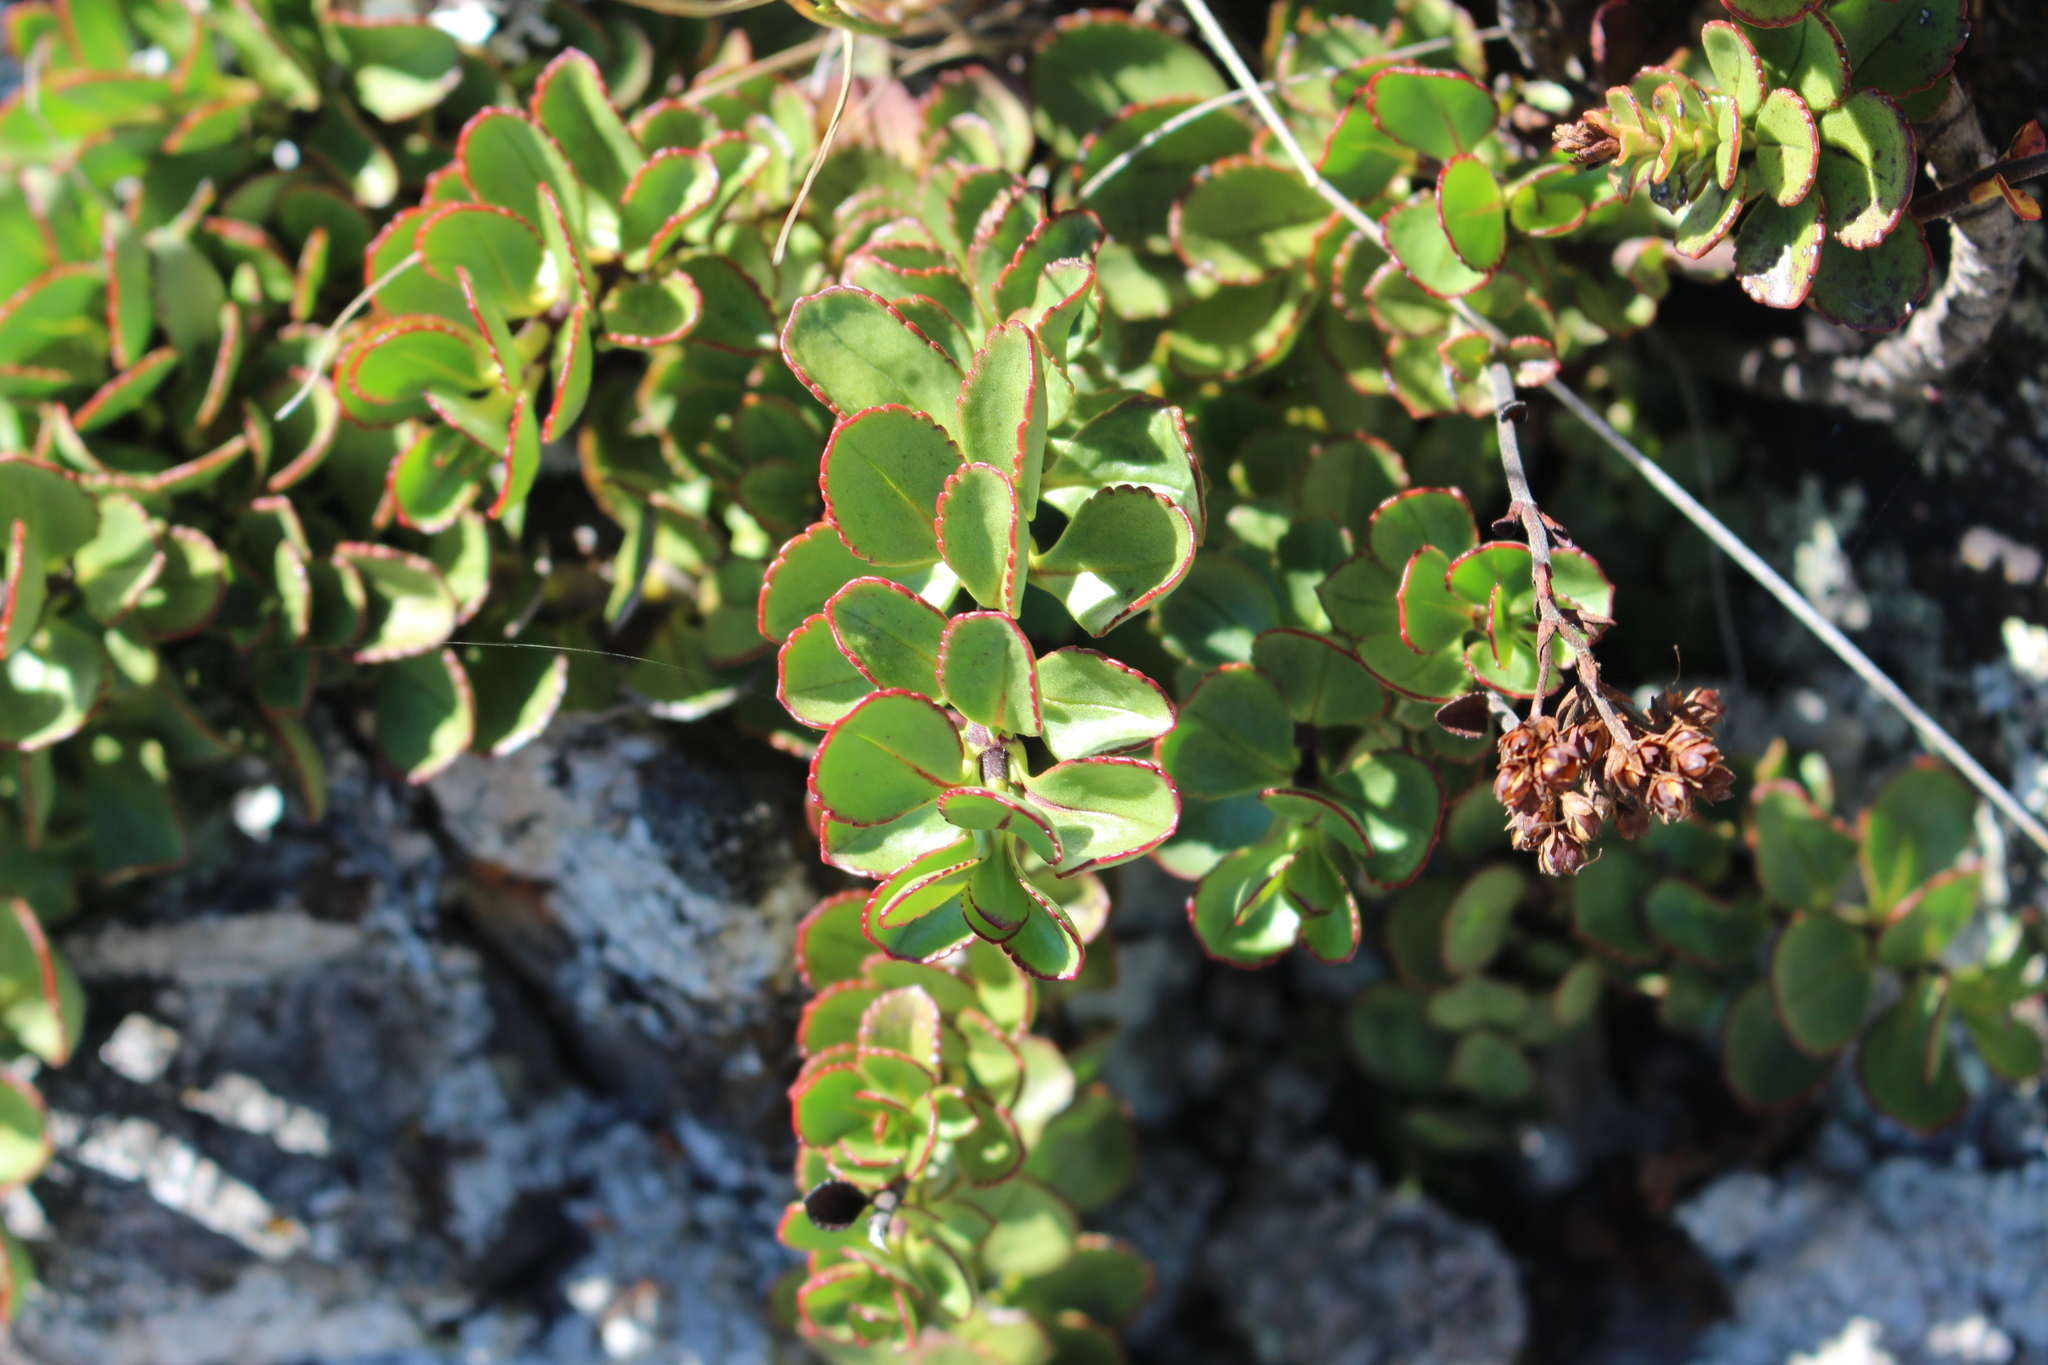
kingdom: Plantae
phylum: Tracheophyta
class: Magnoliopsida
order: Lamiales
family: Plantaginaceae
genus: Veronica
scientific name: Veronica lavaudiana
